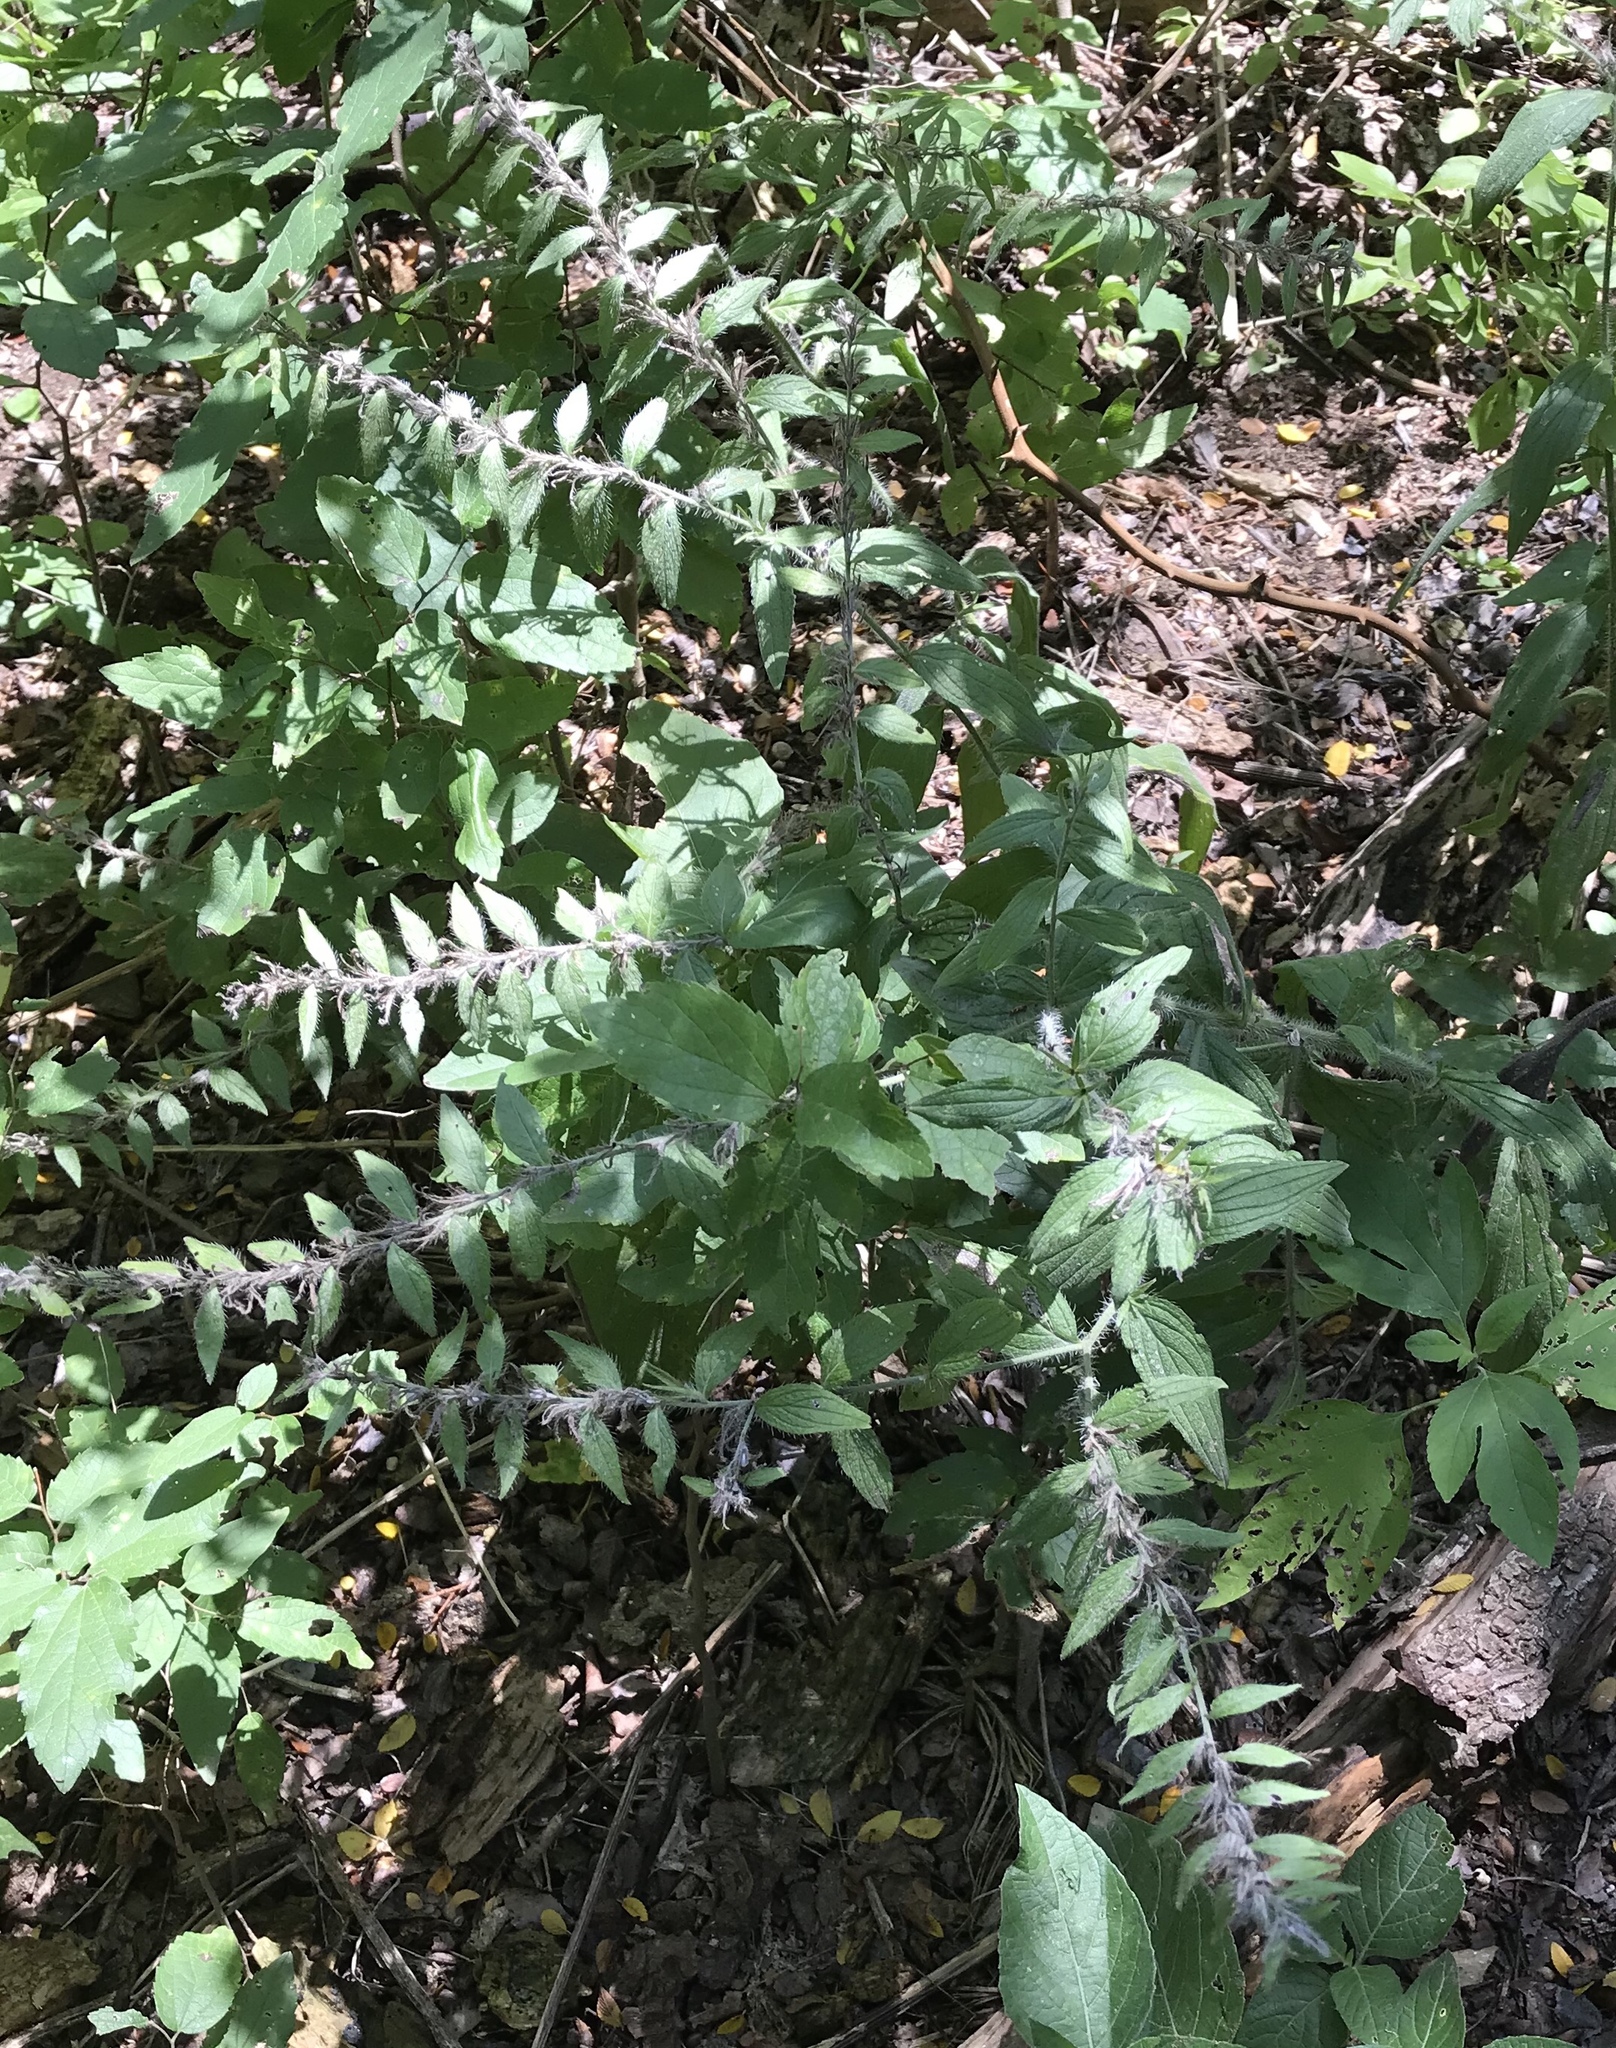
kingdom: Plantae
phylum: Tracheophyta
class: Magnoliopsida
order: Boraginales
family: Boraginaceae
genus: Lithospermum
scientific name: Lithospermum caroliniense
